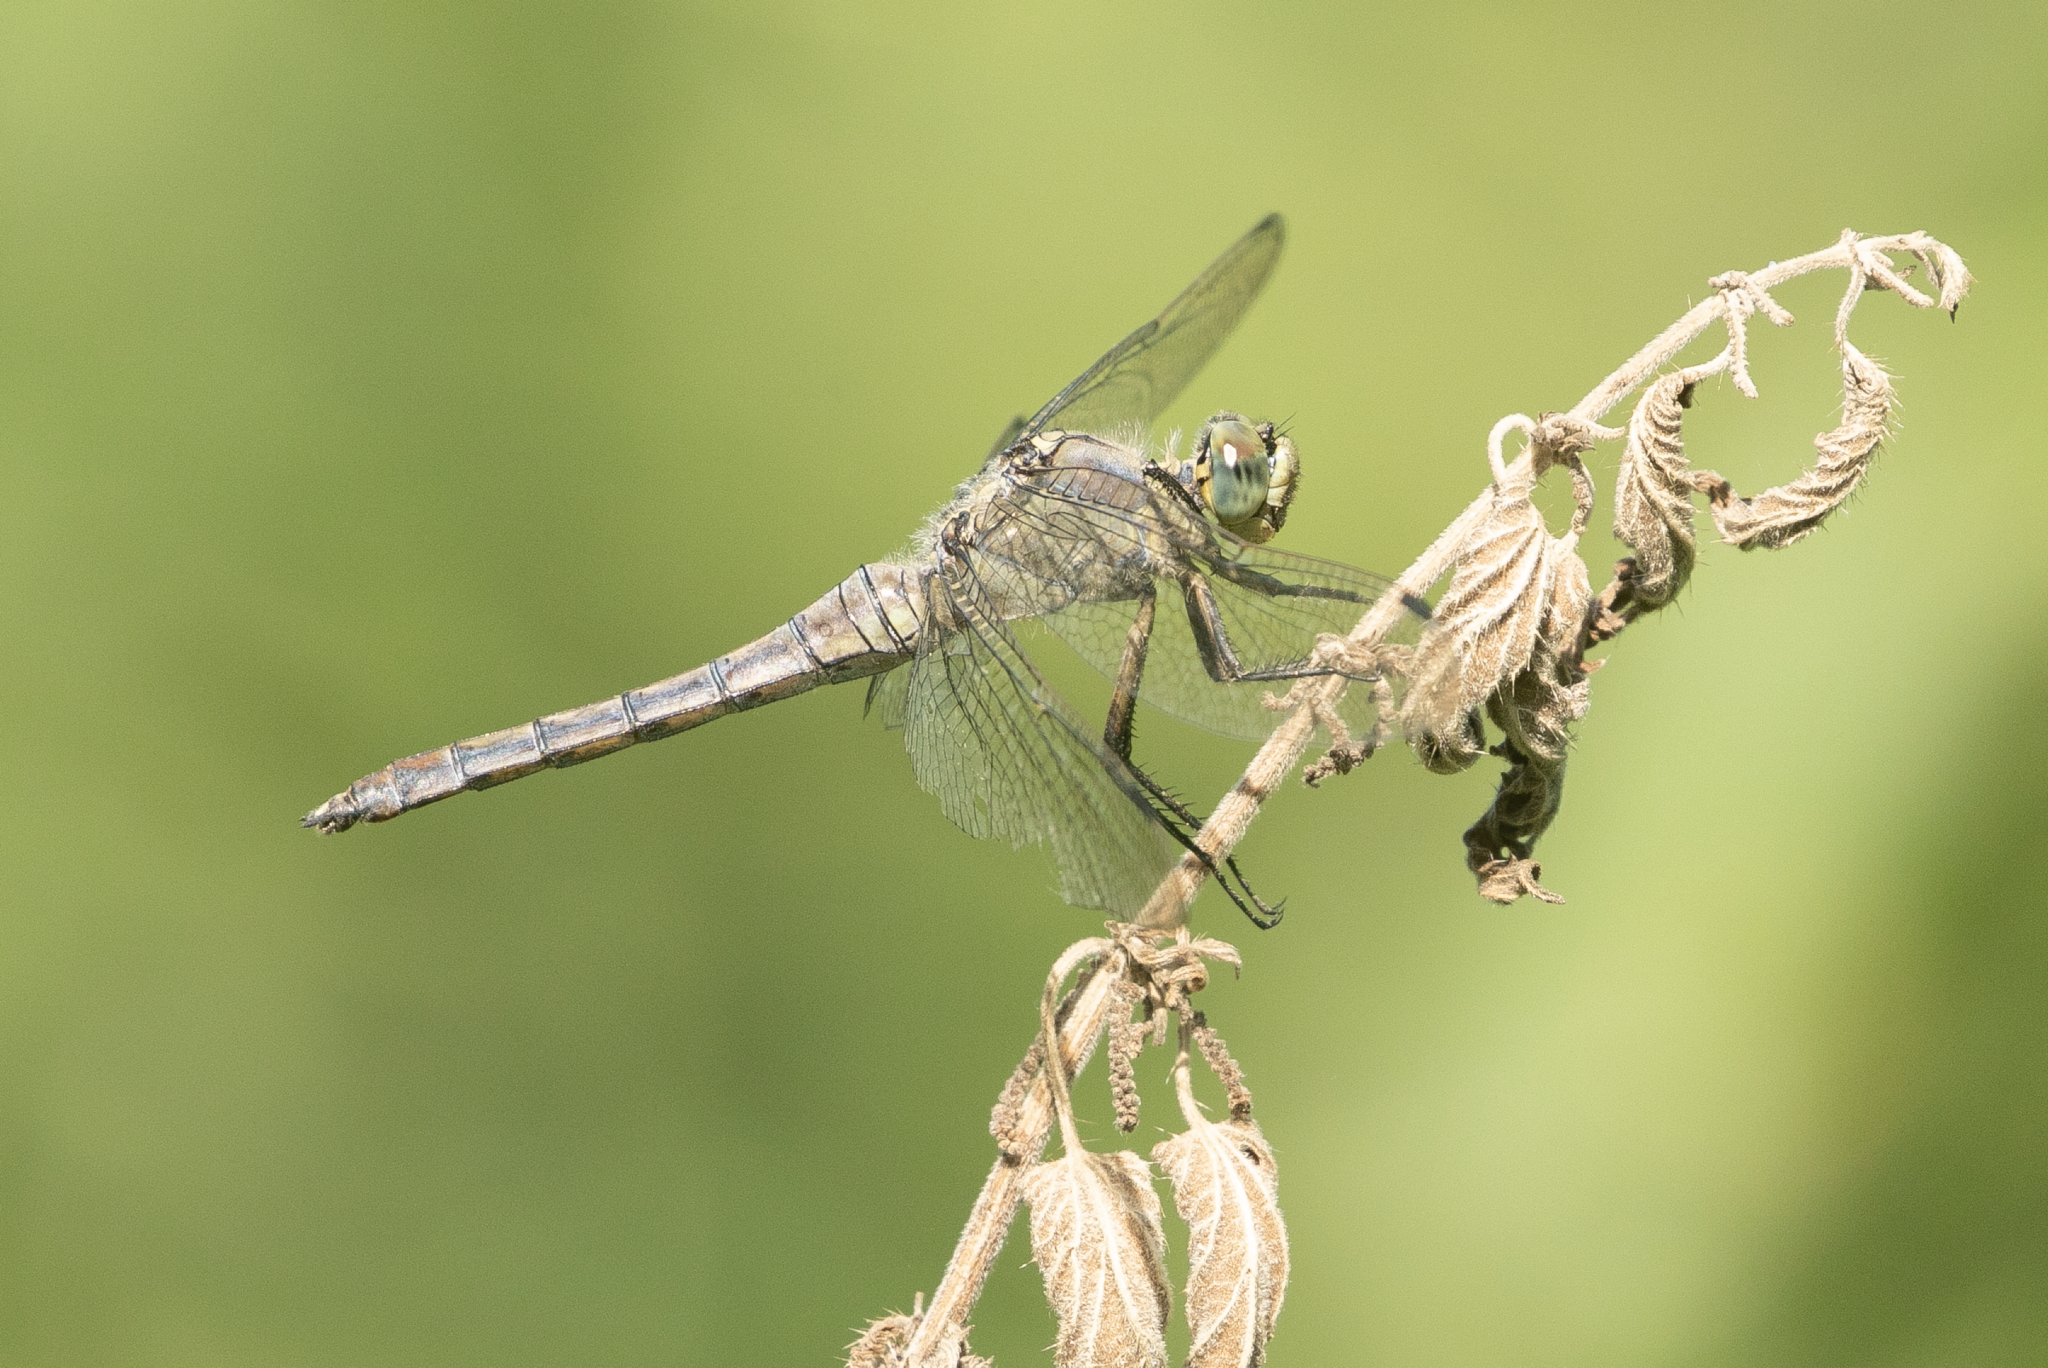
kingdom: Animalia
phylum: Arthropoda
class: Insecta
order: Odonata
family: Libellulidae
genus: Orthetrum
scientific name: Orthetrum cancellatum
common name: Black-tailed skimmer
